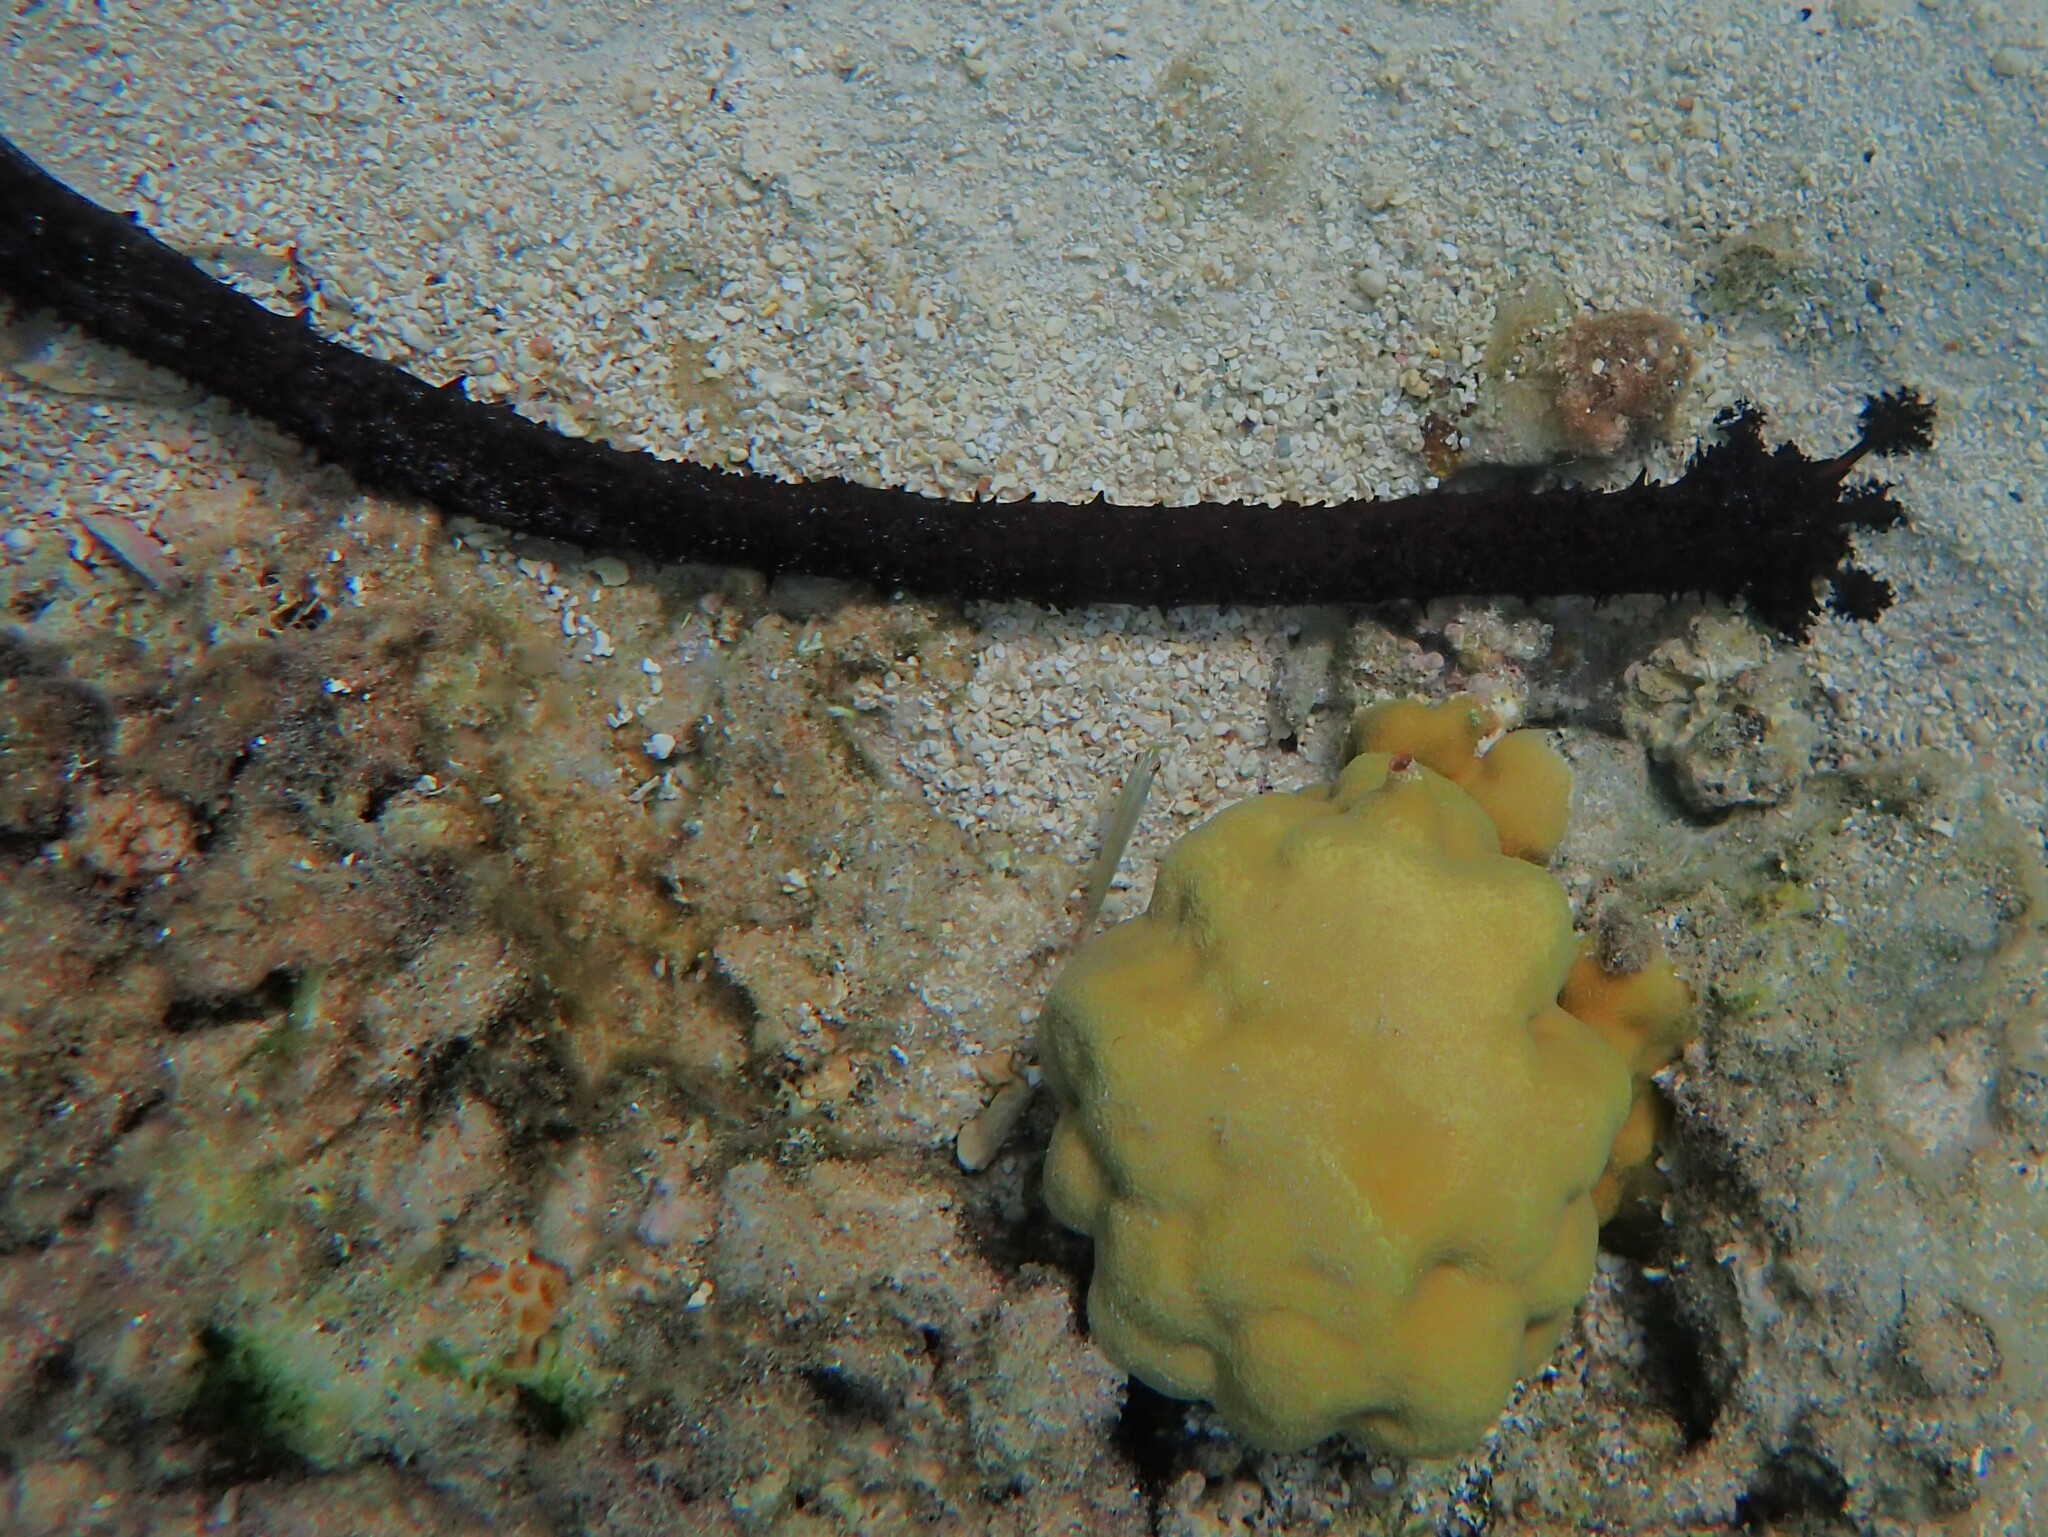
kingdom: Animalia
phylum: Echinodermata
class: Holothuroidea
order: Holothuriida
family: Holothuriidae
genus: Holothuria
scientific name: Holothuria leucospilota
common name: White thread fish
